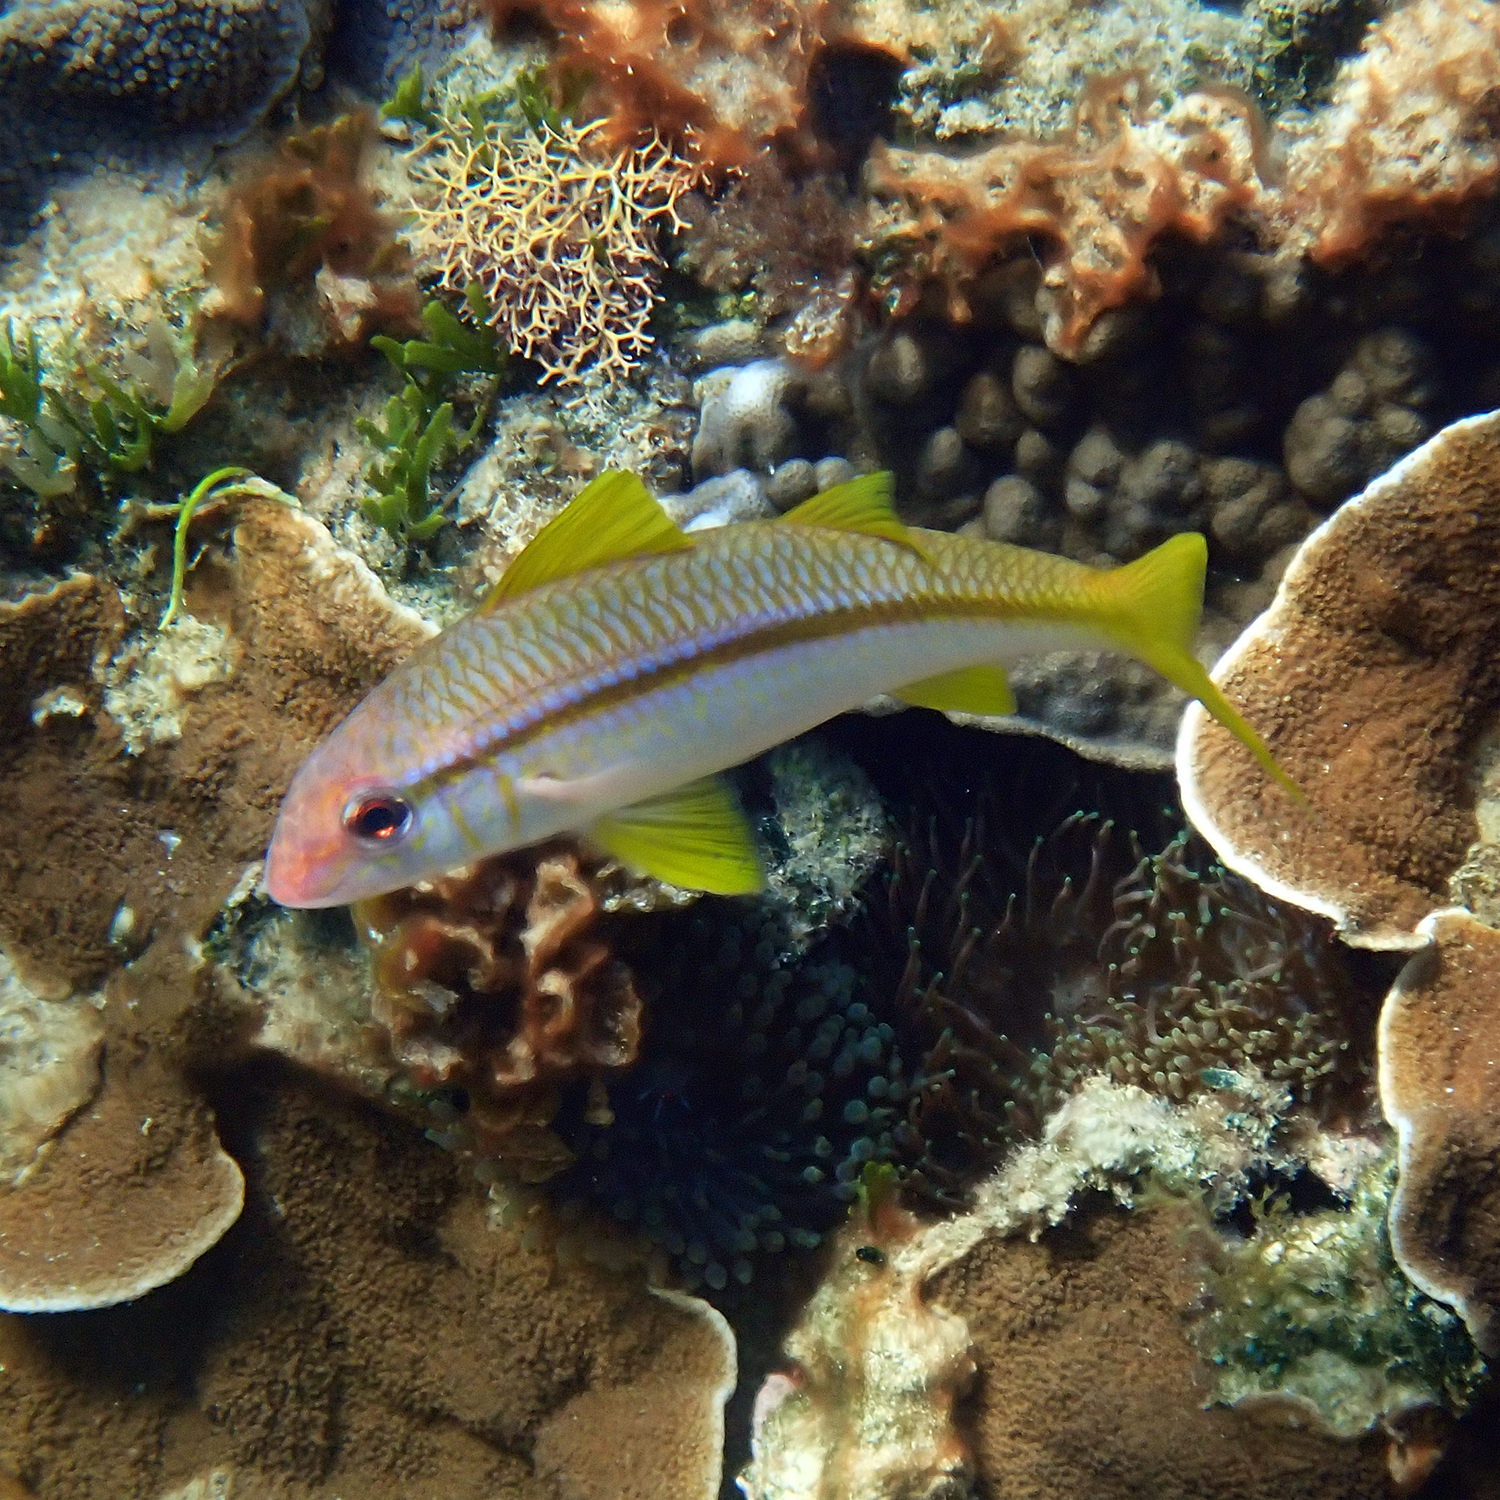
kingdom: Animalia
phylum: Chordata
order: Perciformes
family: Mullidae
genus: Mulloidichthys
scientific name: Mulloidichthys vanicolensis
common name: Yellowfin goatfish
